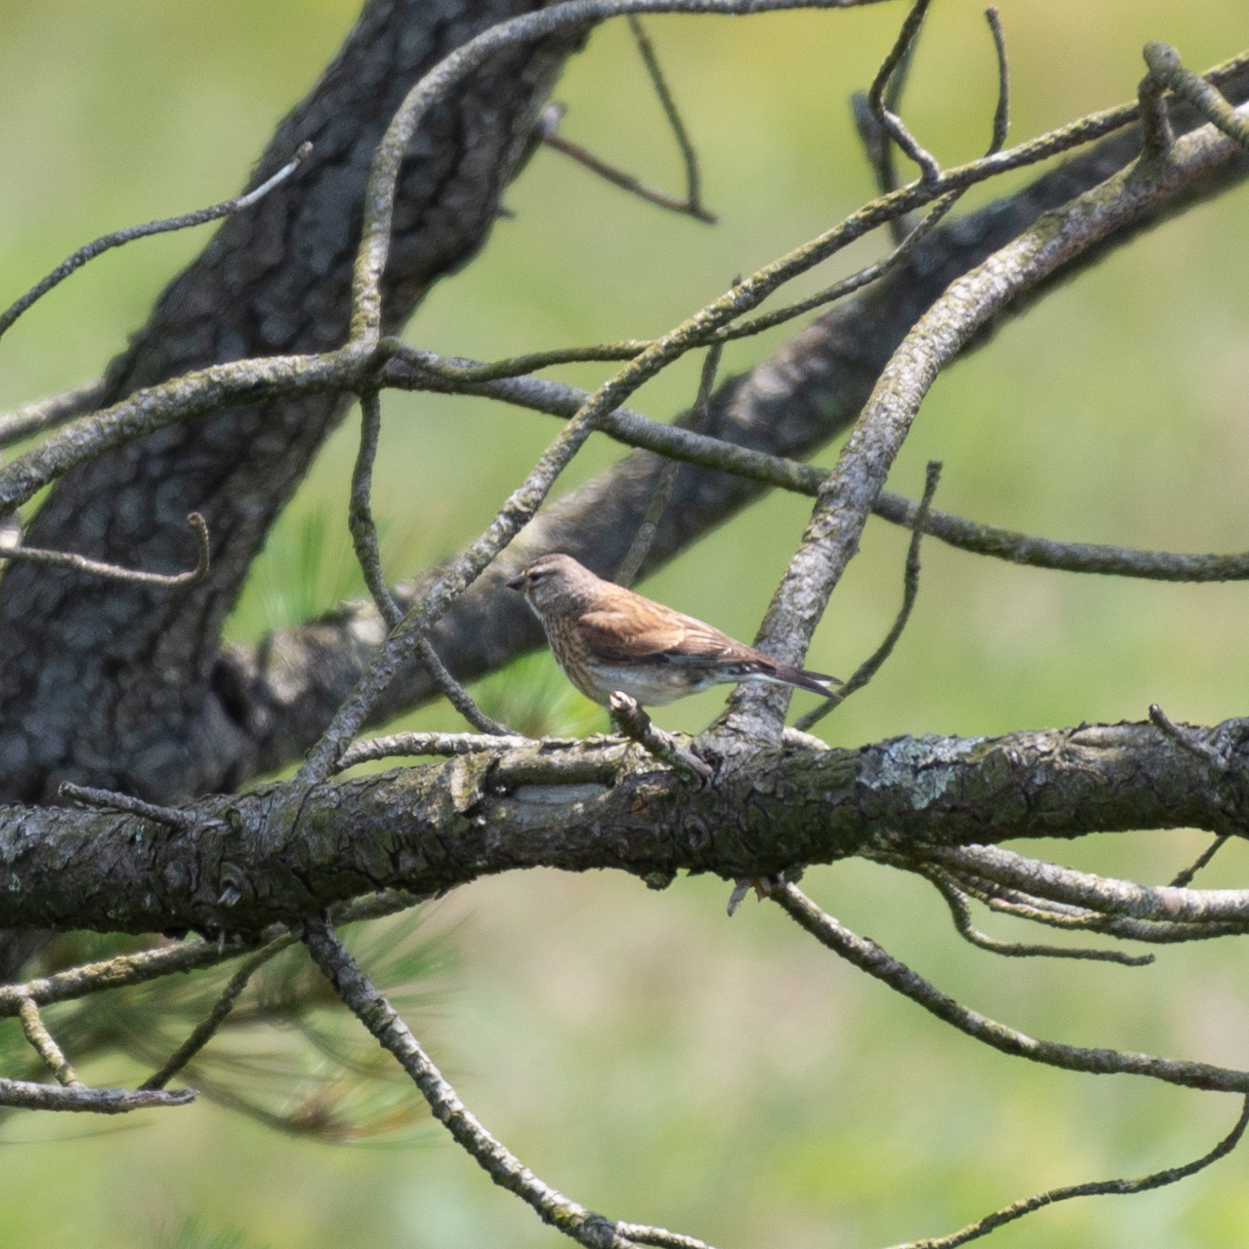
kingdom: Animalia
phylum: Chordata
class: Aves
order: Passeriformes
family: Fringillidae
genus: Linaria
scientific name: Linaria cannabina
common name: Common linnet
